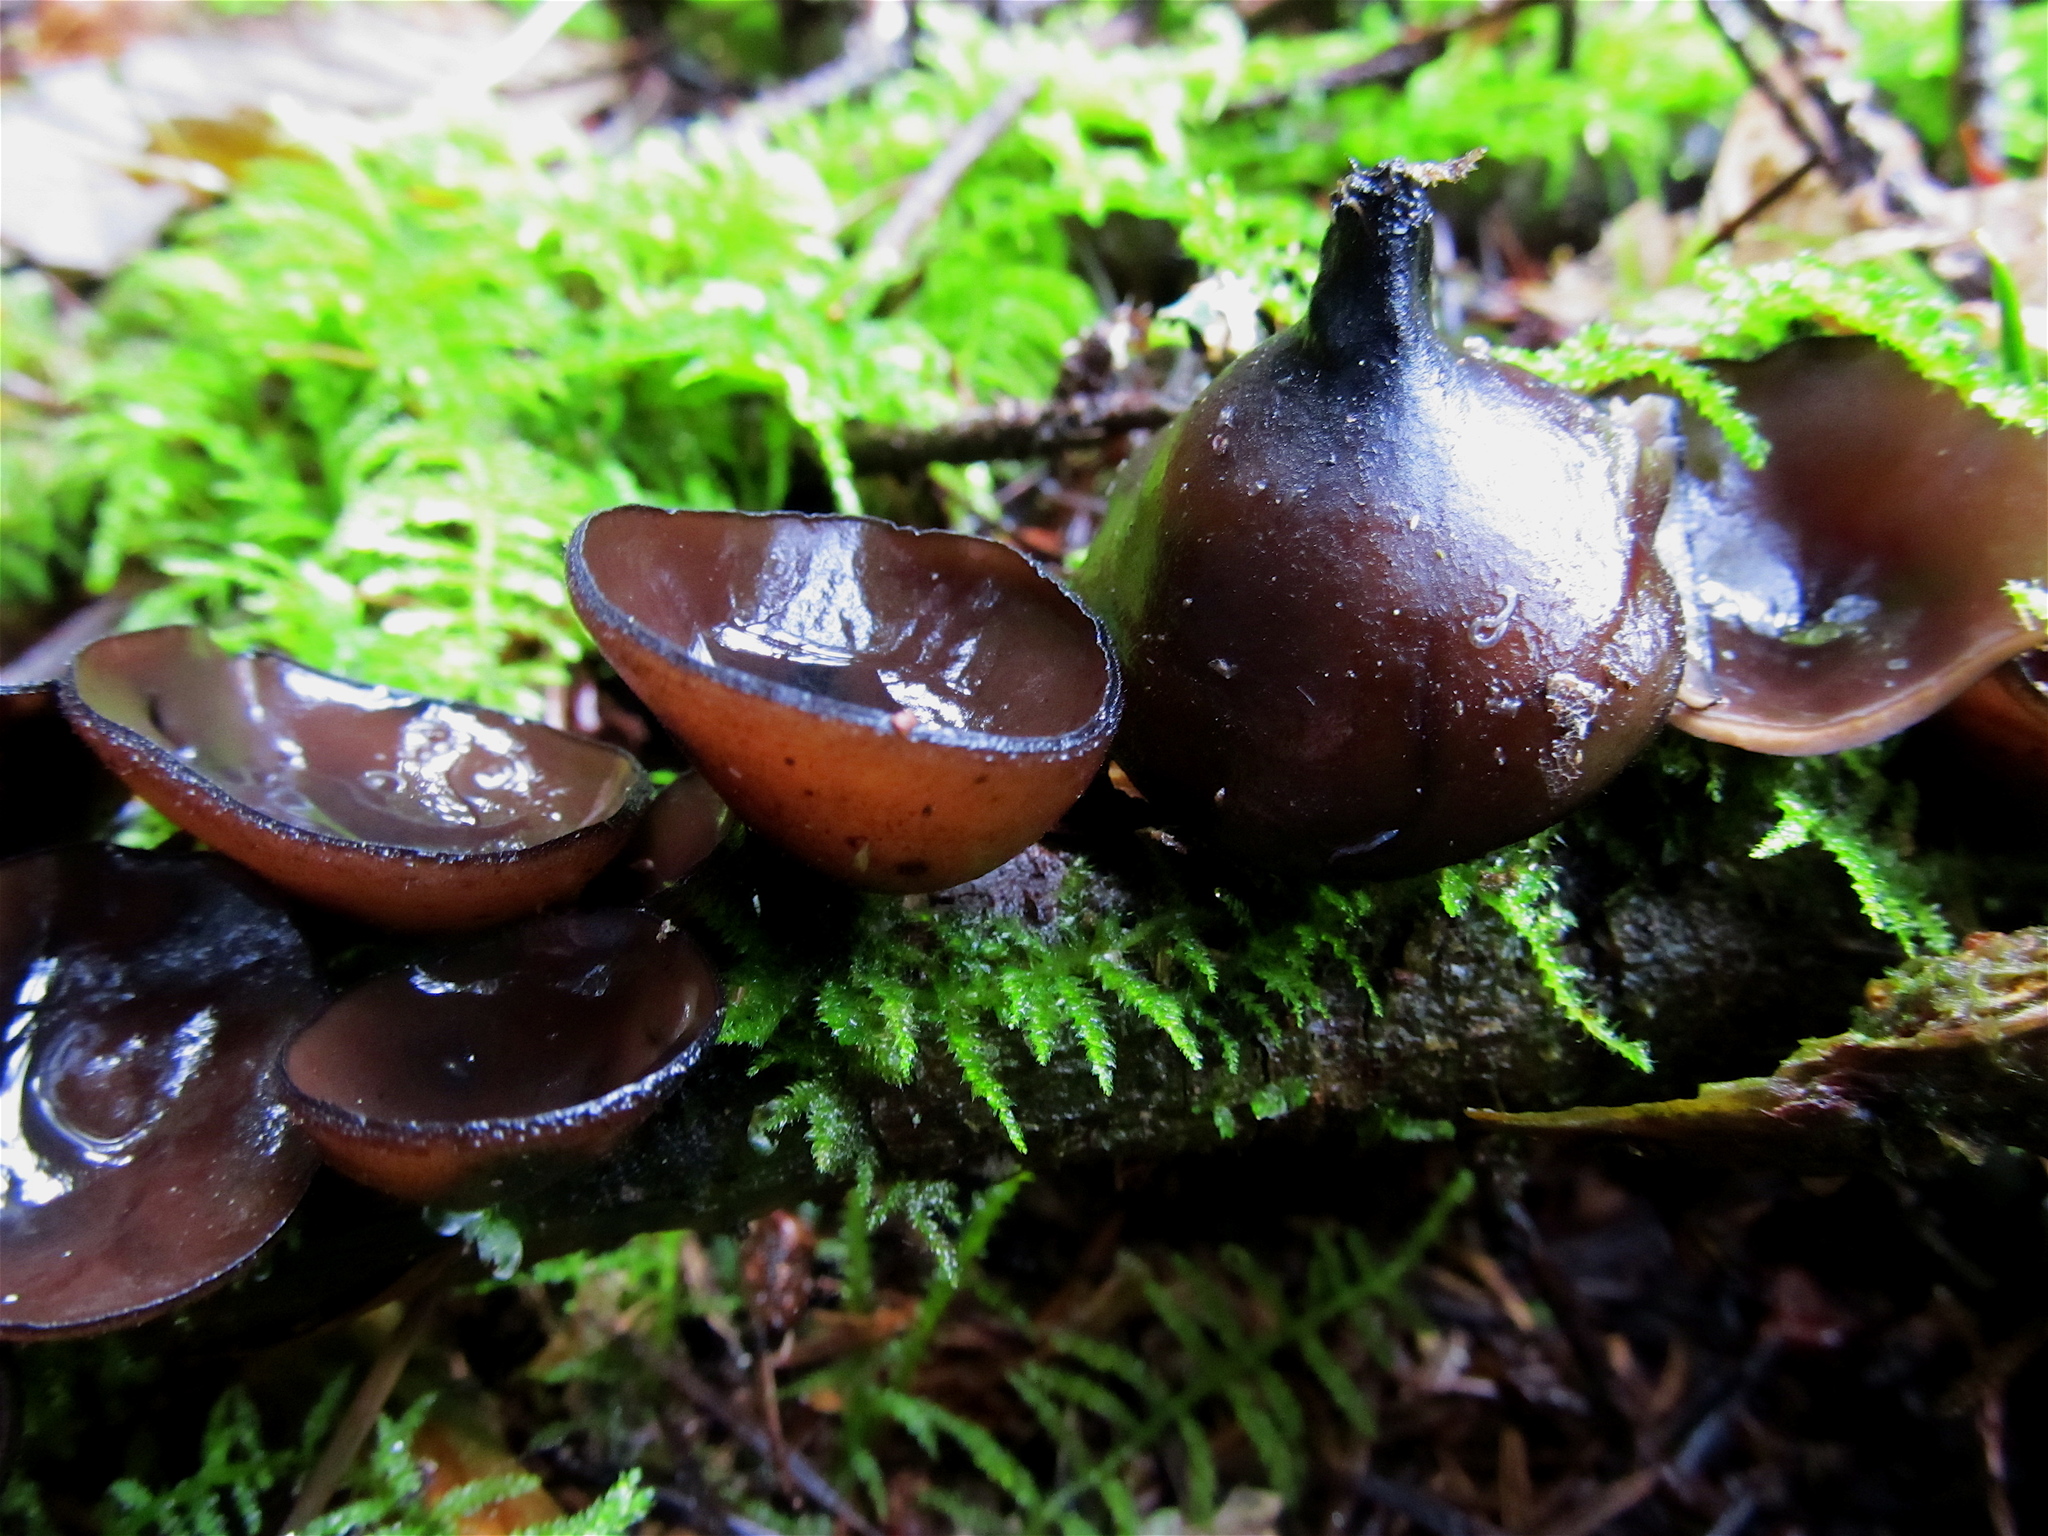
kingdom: Fungi
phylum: Ascomycota
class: Pezizomycetes
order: Pezizales
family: Sarcosomataceae
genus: Pseudoplectania
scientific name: Pseudoplectania melaena
